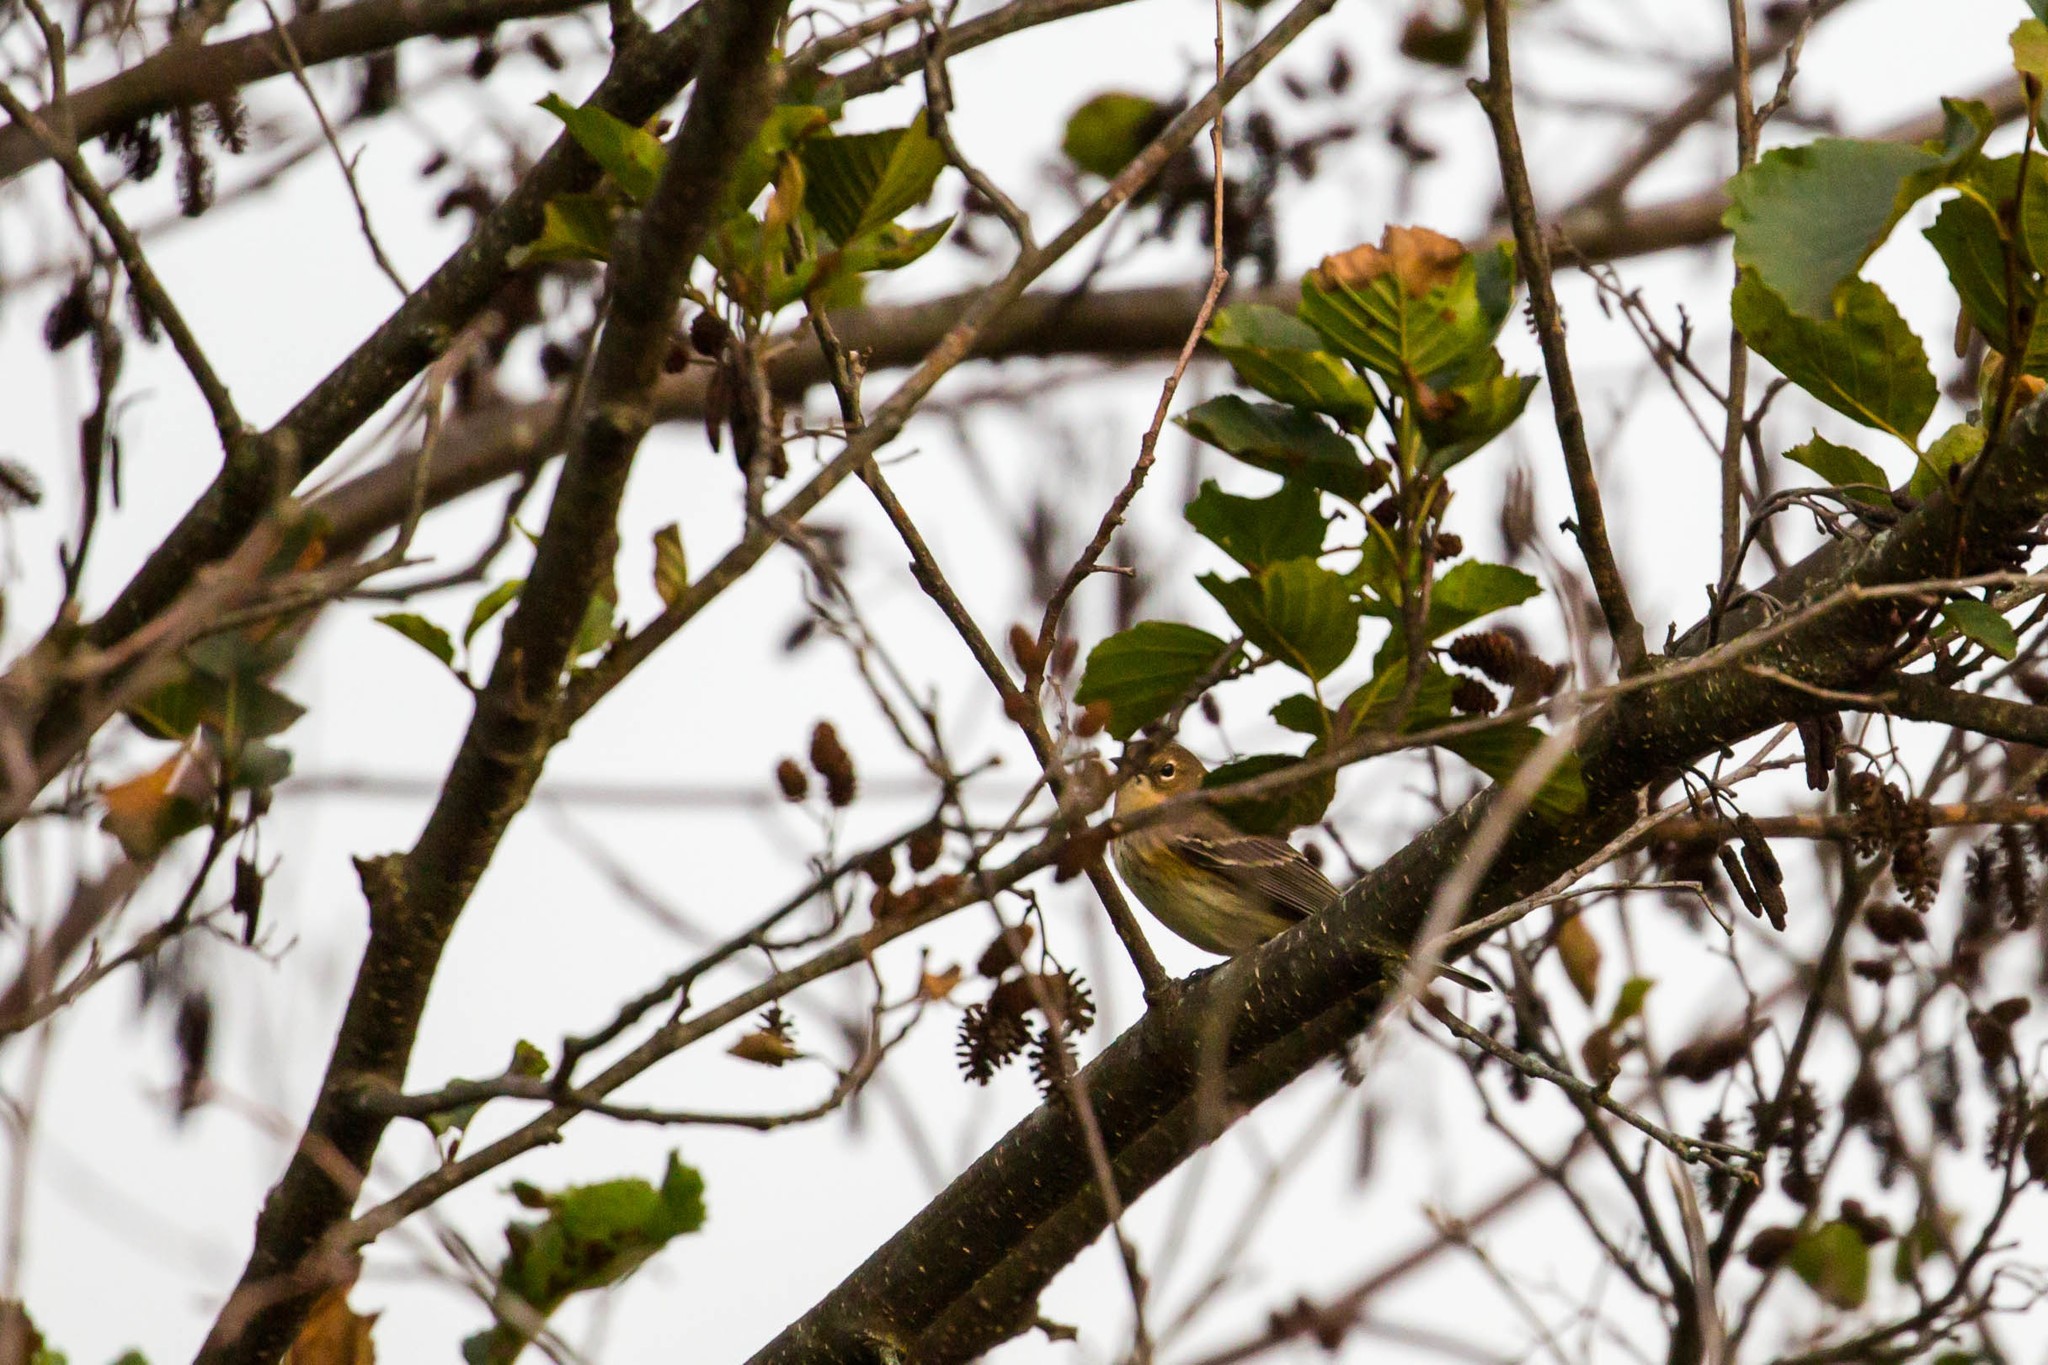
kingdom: Animalia
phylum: Chordata
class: Aves
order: Passeriformes
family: Parulidae
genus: Setophaga
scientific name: Setophaga coronata
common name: Myrtle warbler
